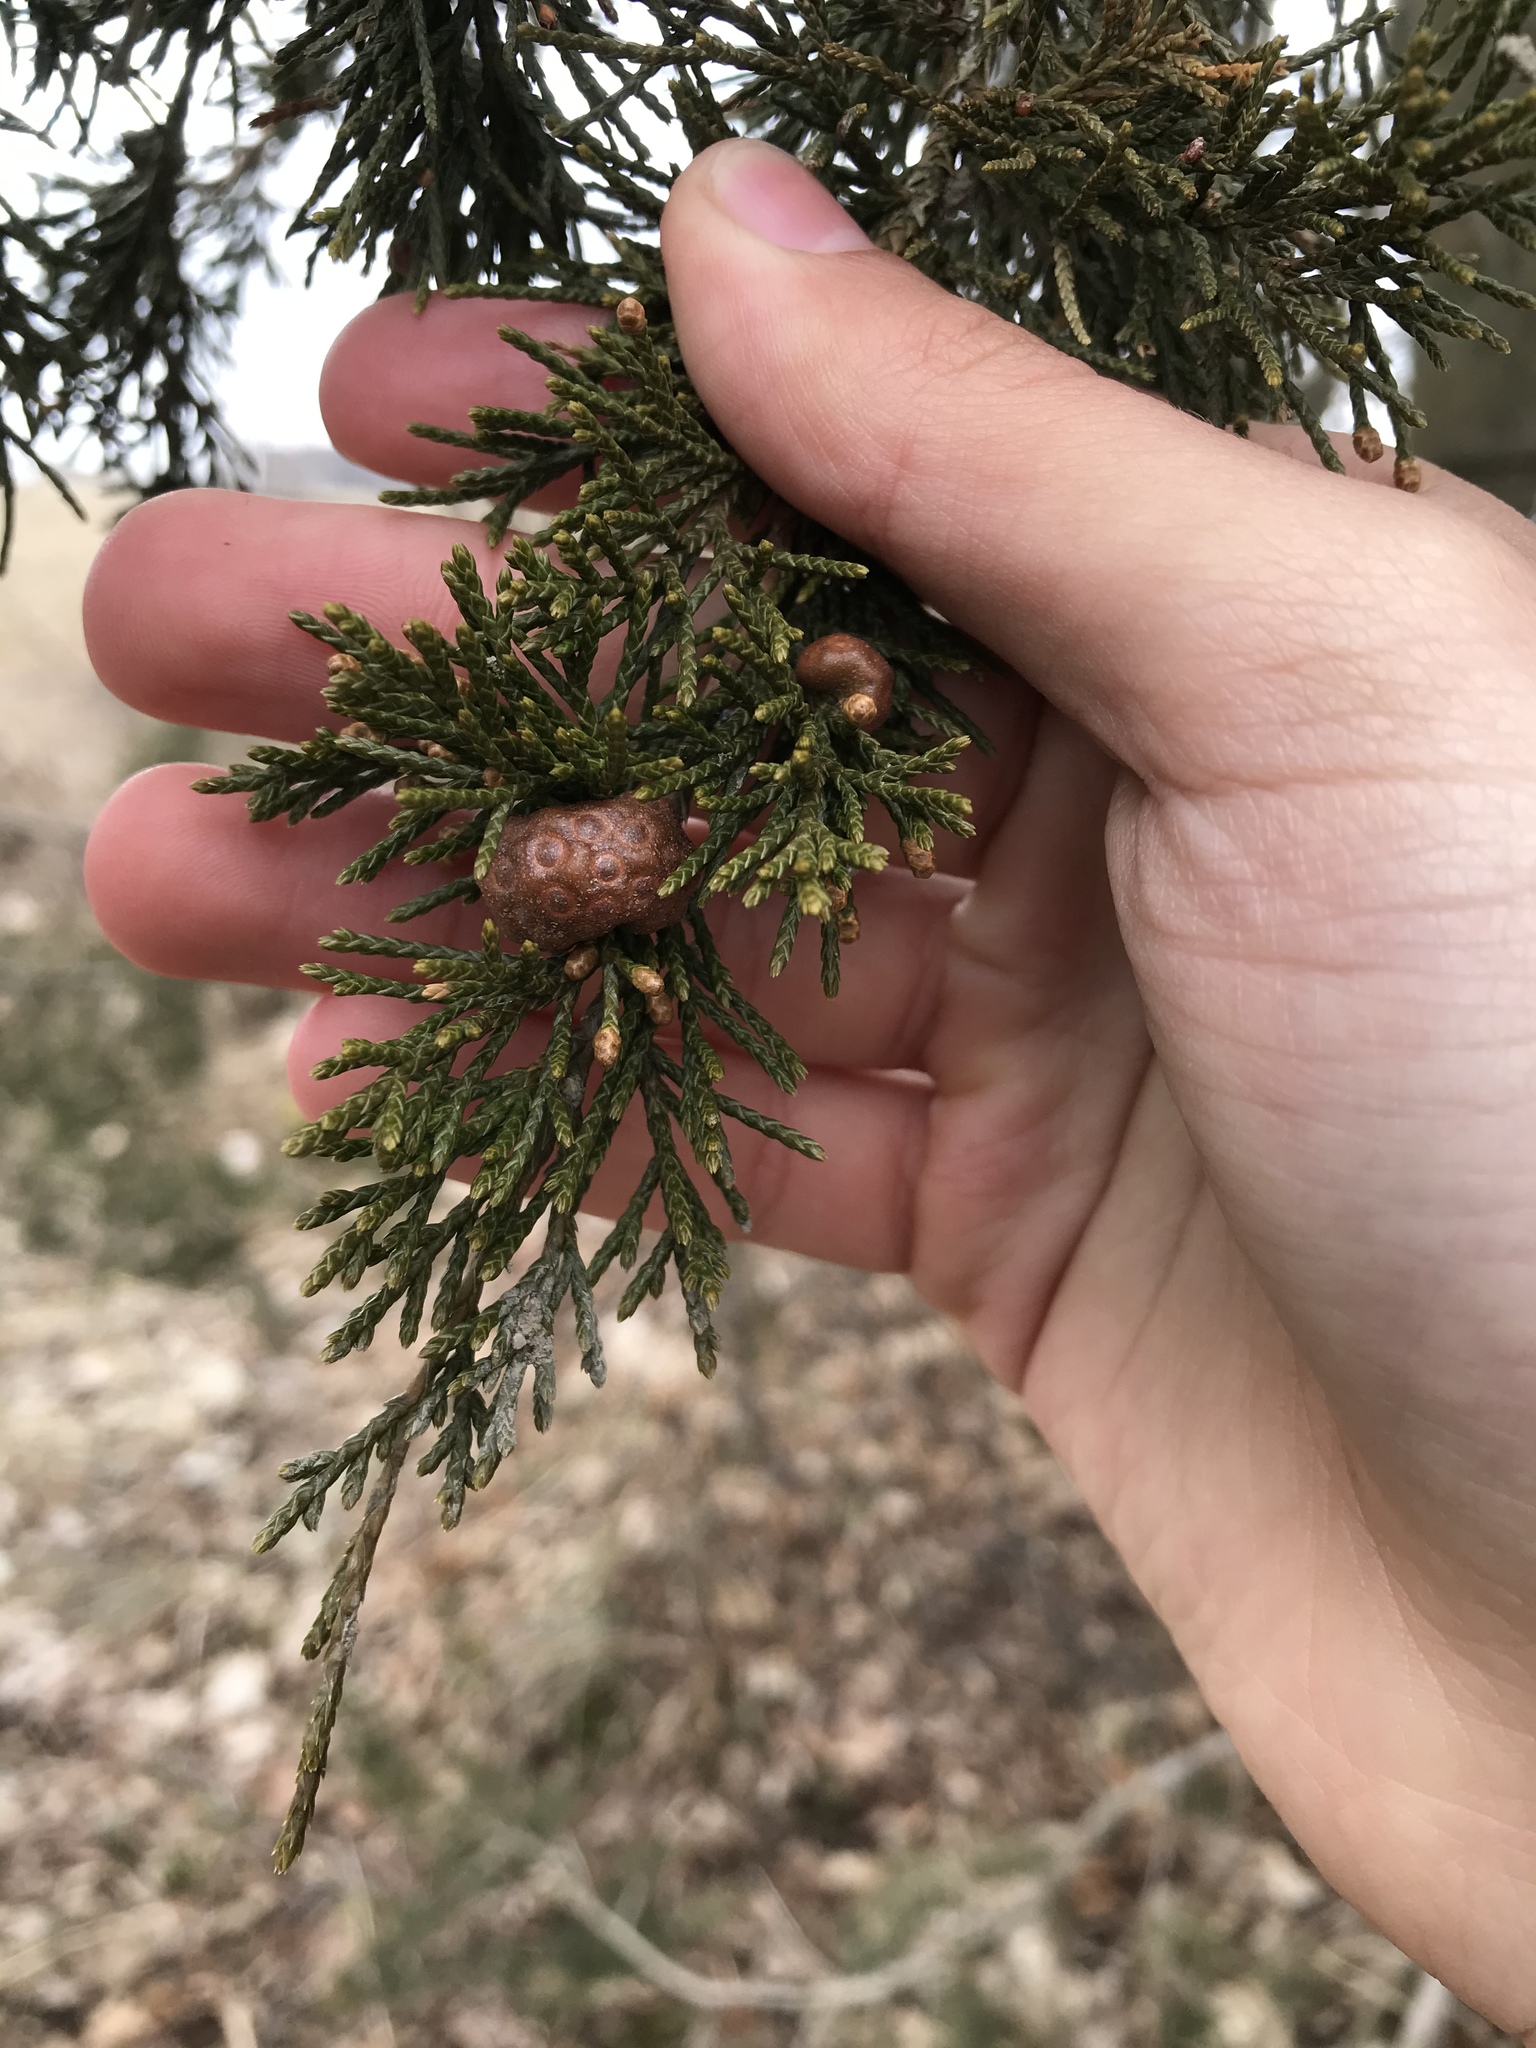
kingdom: Fungi
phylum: Basidiomycota
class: Pucciniomycetes
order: Pucciniales
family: Gymnosporangiaceae
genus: Gymnosporangium
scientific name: Gymnosporangium juniperi-virginianae
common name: Juniper-apple rust
